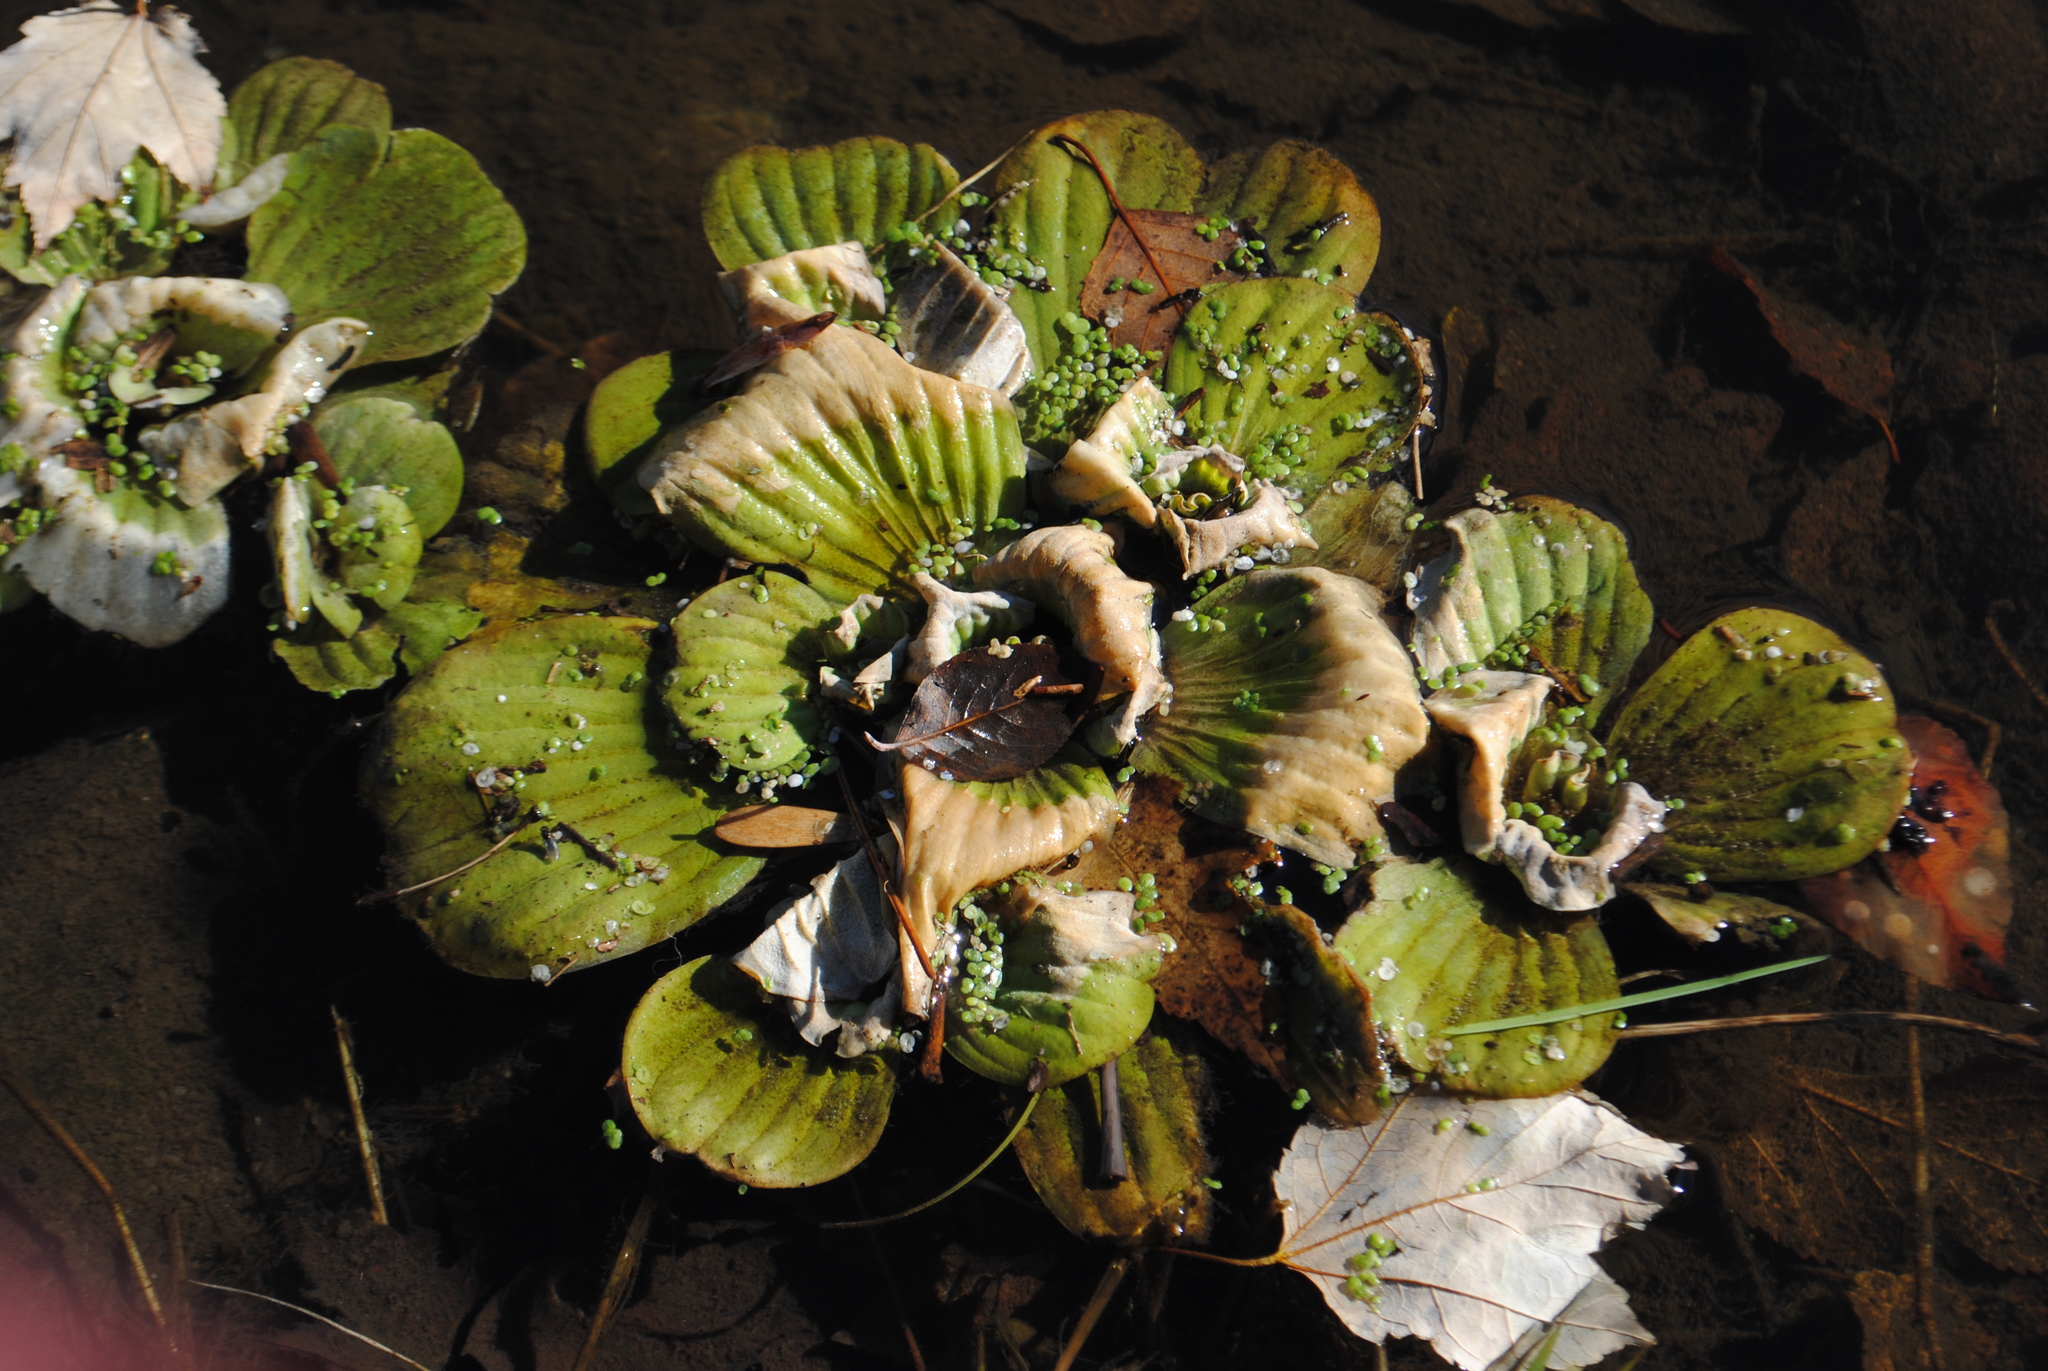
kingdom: Plantae
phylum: Tracheophyta
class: Liliopsida
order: Alismatales
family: Araceae
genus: Pistia
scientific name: Pistia stratiotes
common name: Water lettuce
